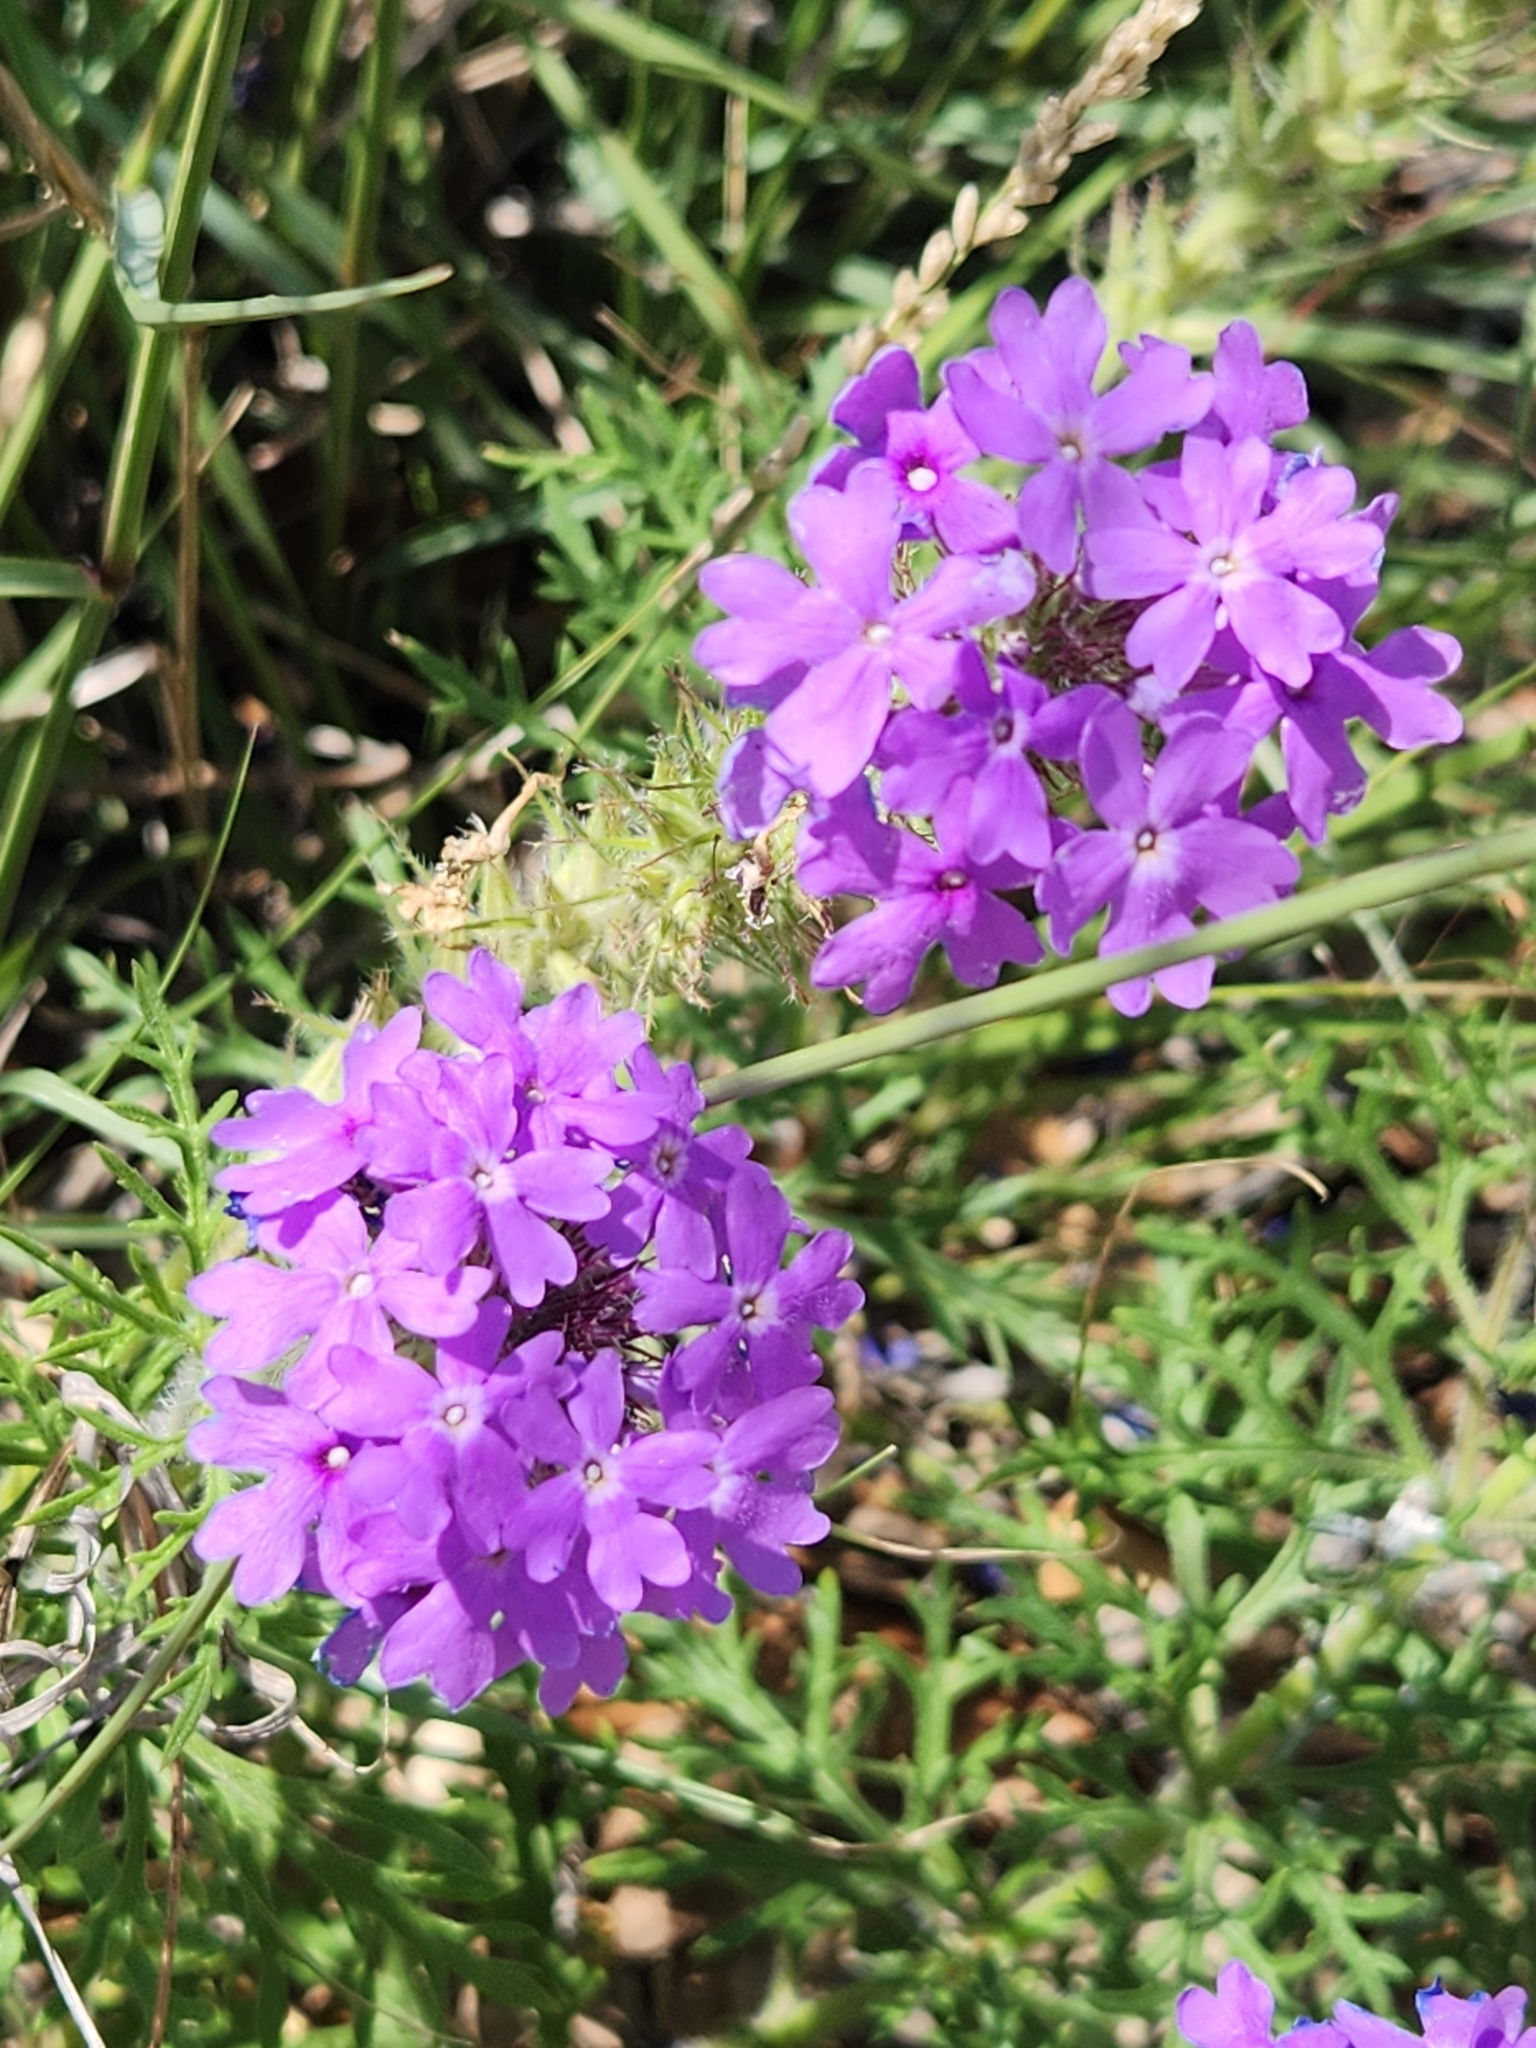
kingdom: Plantae
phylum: Tracheophyta
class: Magnoliopsida
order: Lamiales
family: Verbenaceae
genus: Verbena
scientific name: Verbena bipinnatifida
